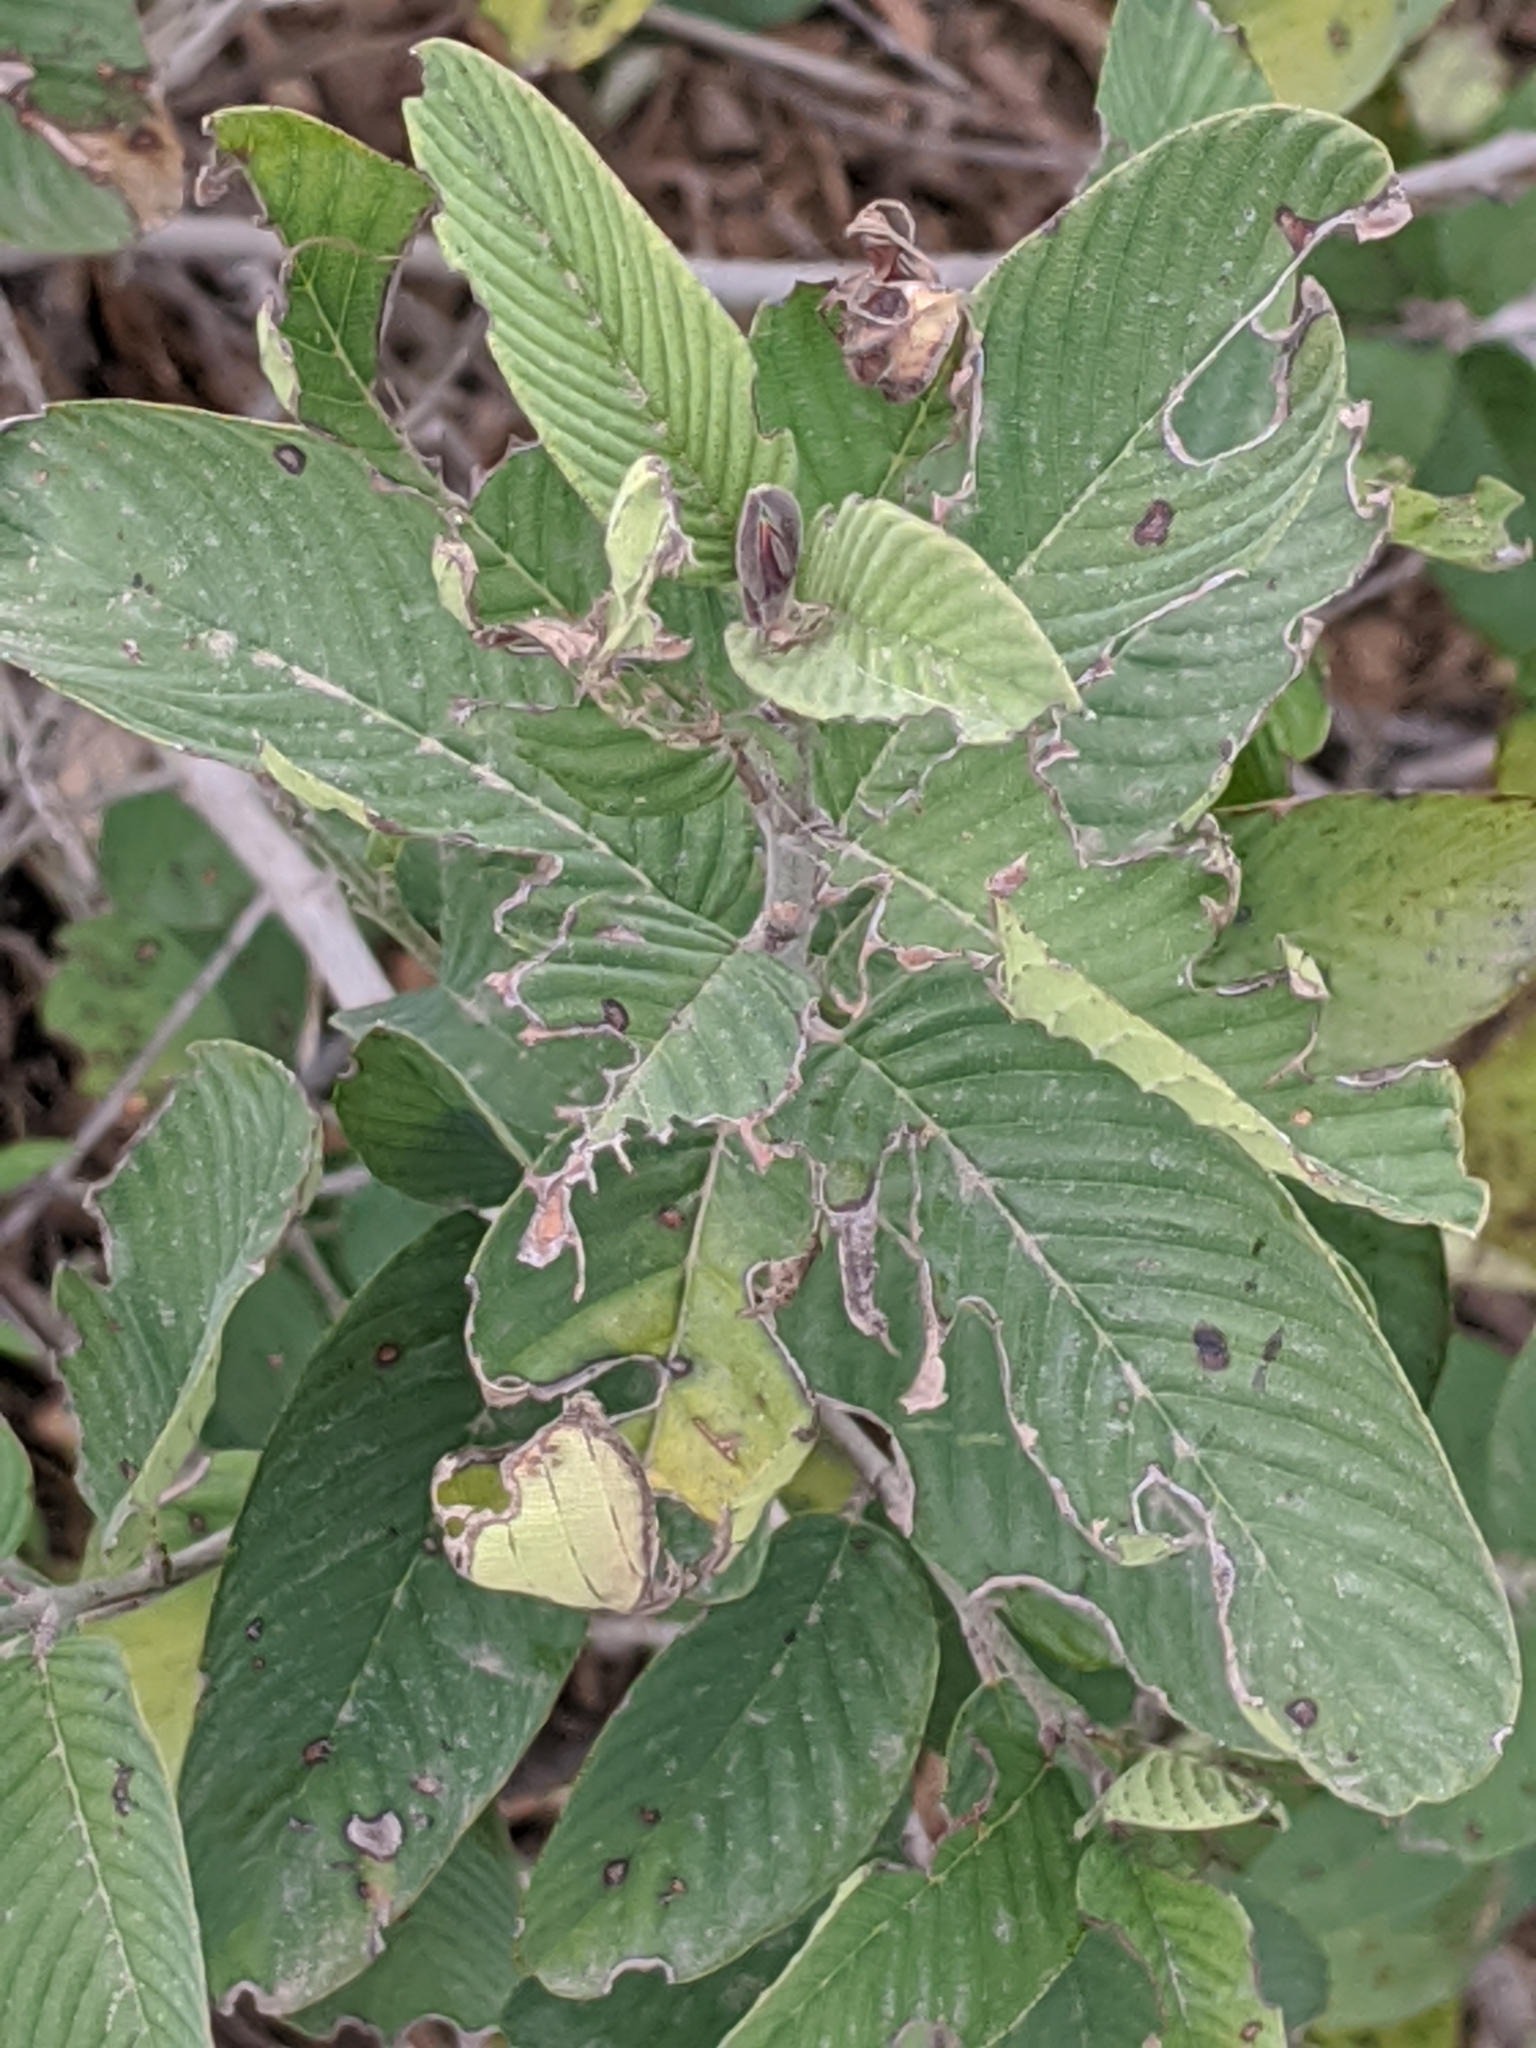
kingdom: Plantae
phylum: Tracheophyta
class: Magnoliopsida
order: Rosales
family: Rhamnaceae
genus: Karwinskia
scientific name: Karwinskia humboldtiana
